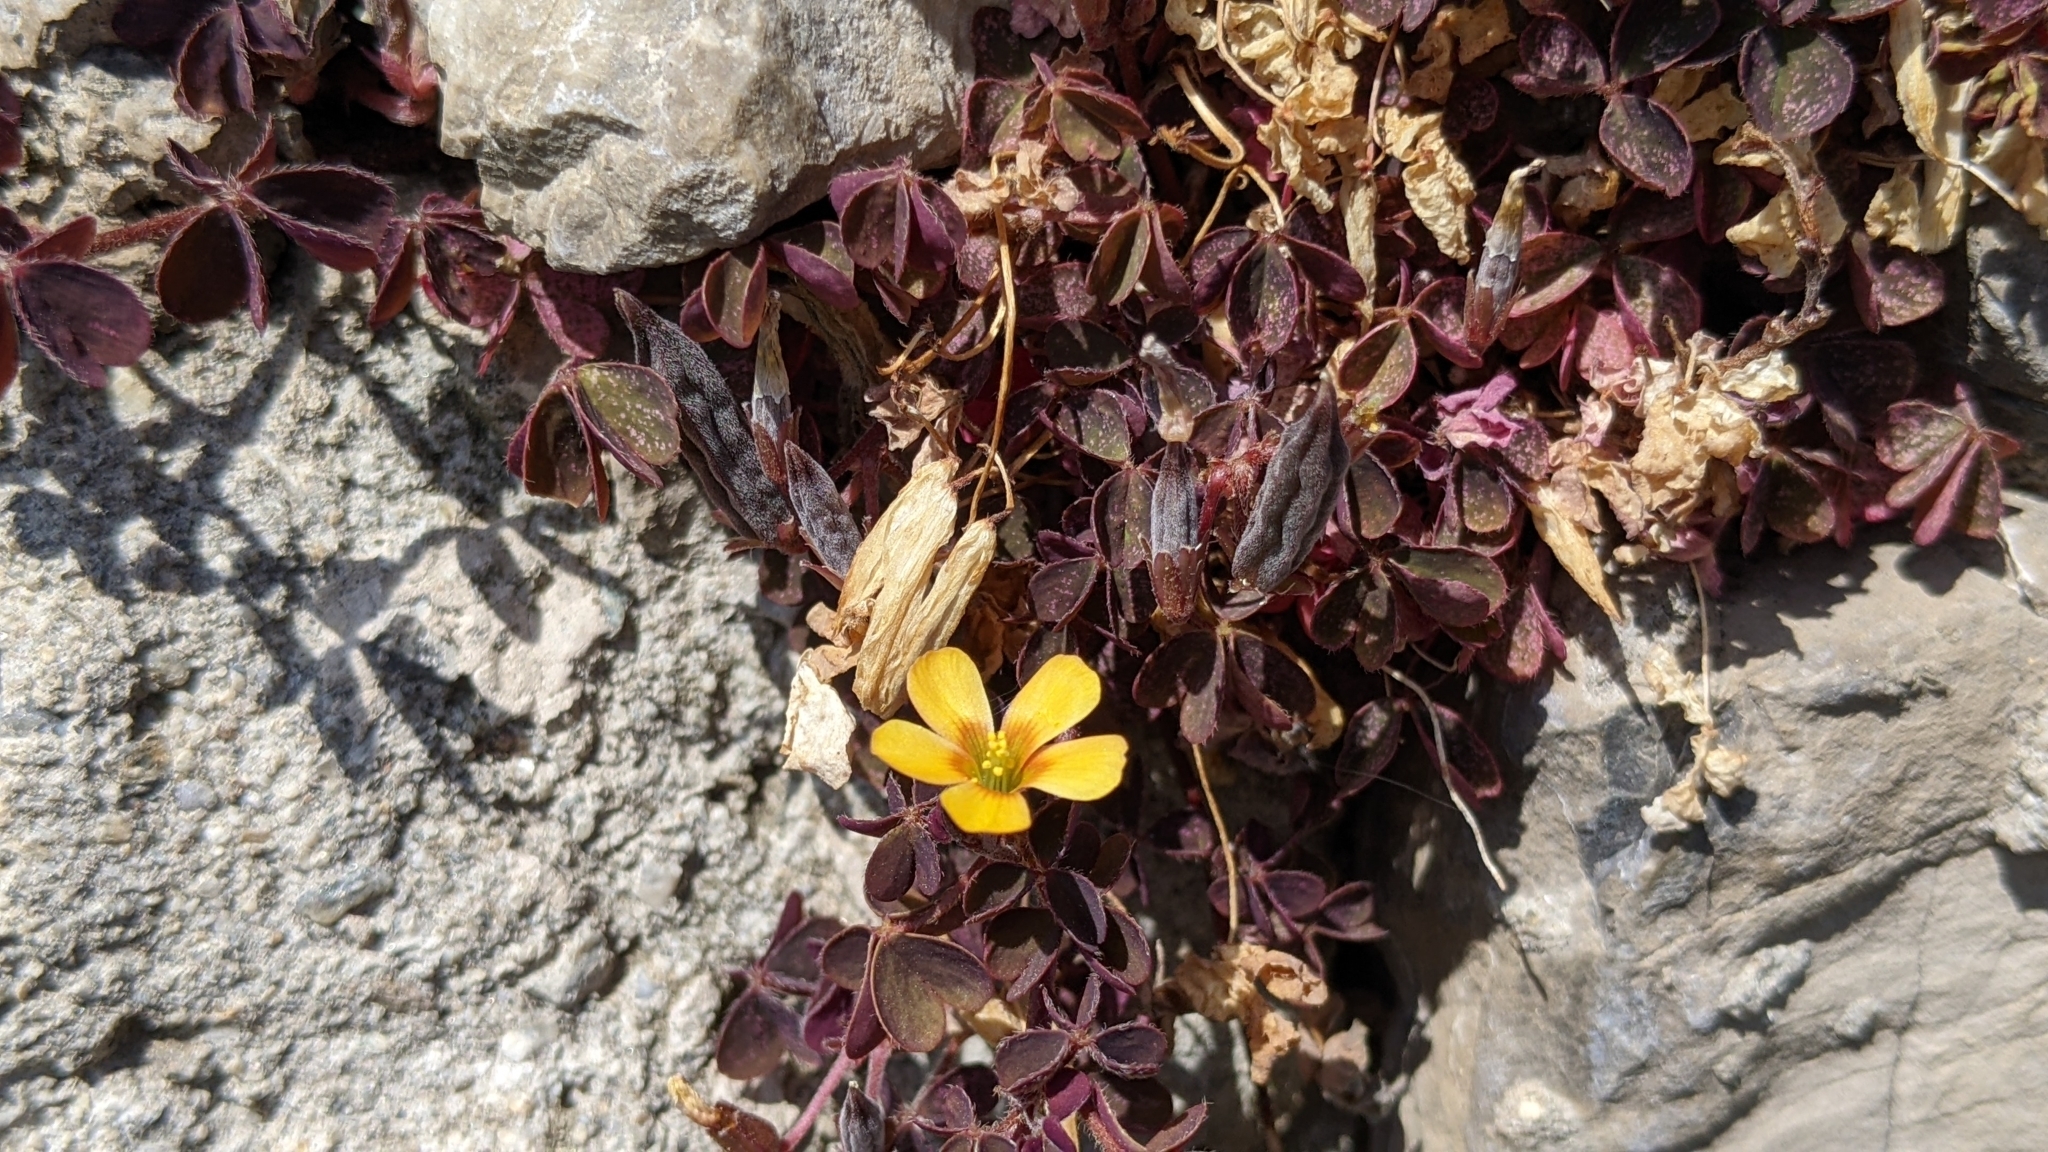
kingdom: Plantae
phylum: Tracheophyta
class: Magnoliopsida
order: Oxalidales
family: Oxalidaceae
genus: Oxalis
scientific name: Oxalis corniculata
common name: Procumbent yellow-sorrel
